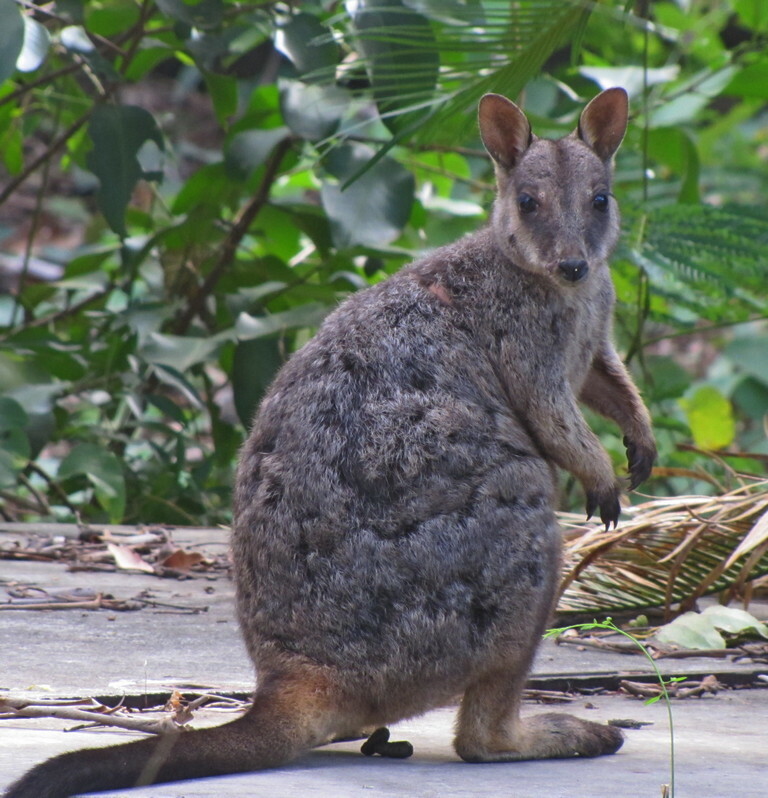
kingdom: Animalia
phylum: Chordata
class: Mammalia
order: Diprotodontia
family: Macropodidae
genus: Petrogale
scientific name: Petrogale assimilis
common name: Allied rock wallaby
